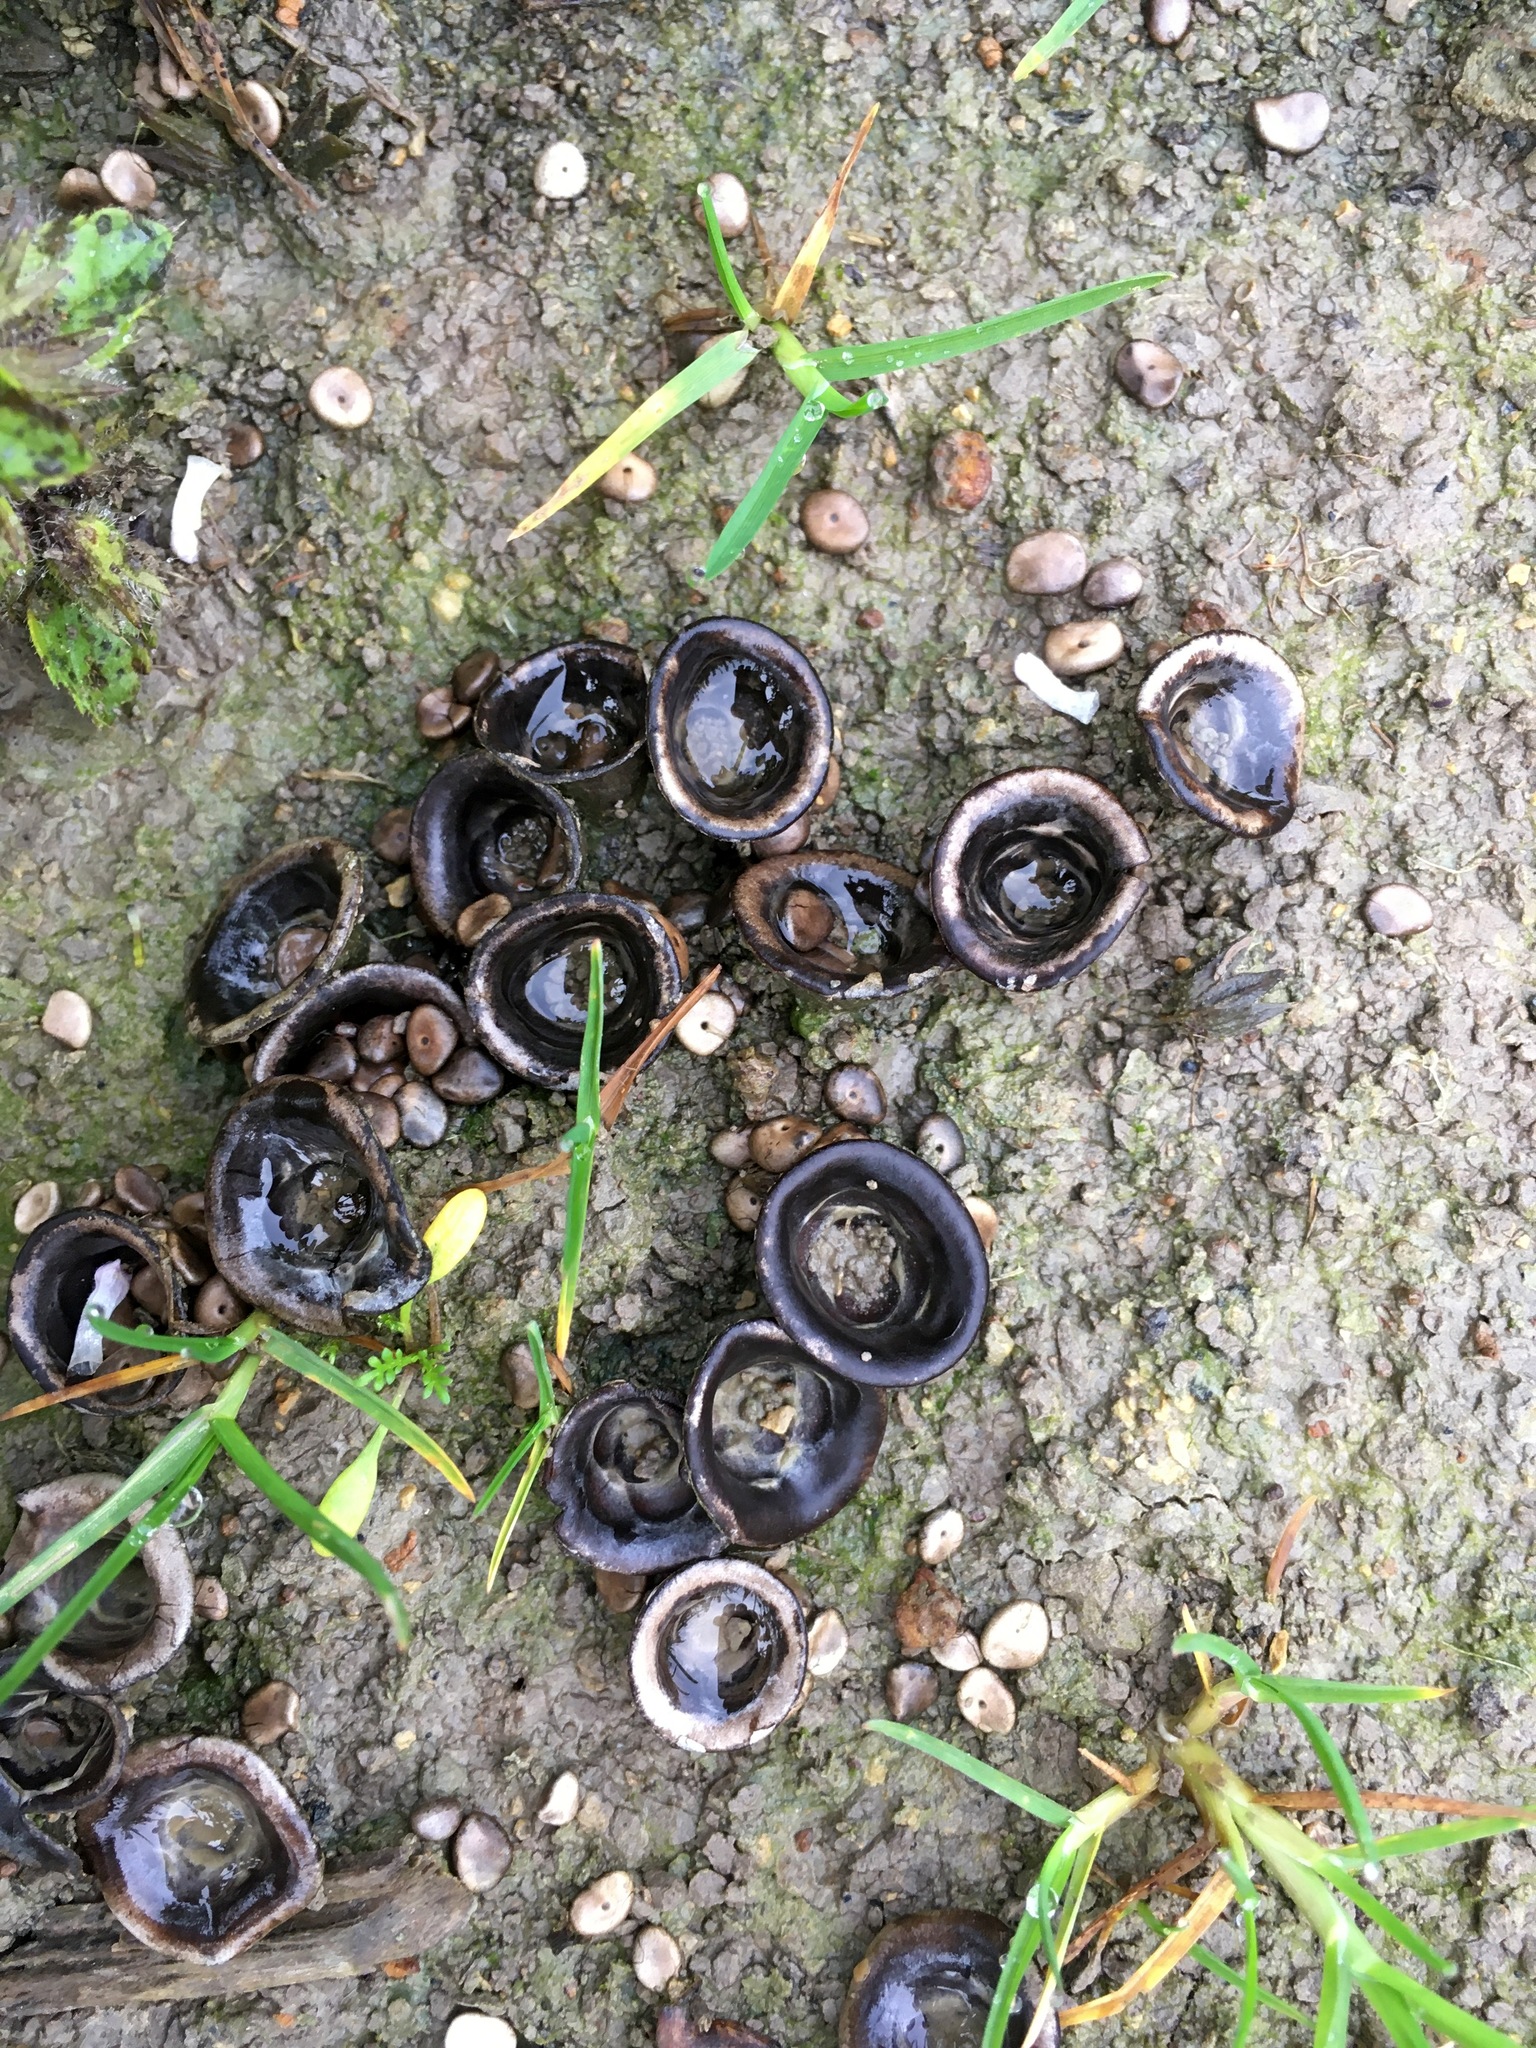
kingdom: Fungi
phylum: Basidiomycota
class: Agaricomycetes
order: Agaricales
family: Agaricaceae
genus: Cyathus
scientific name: Cyathus olla
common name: Field bird's nest
